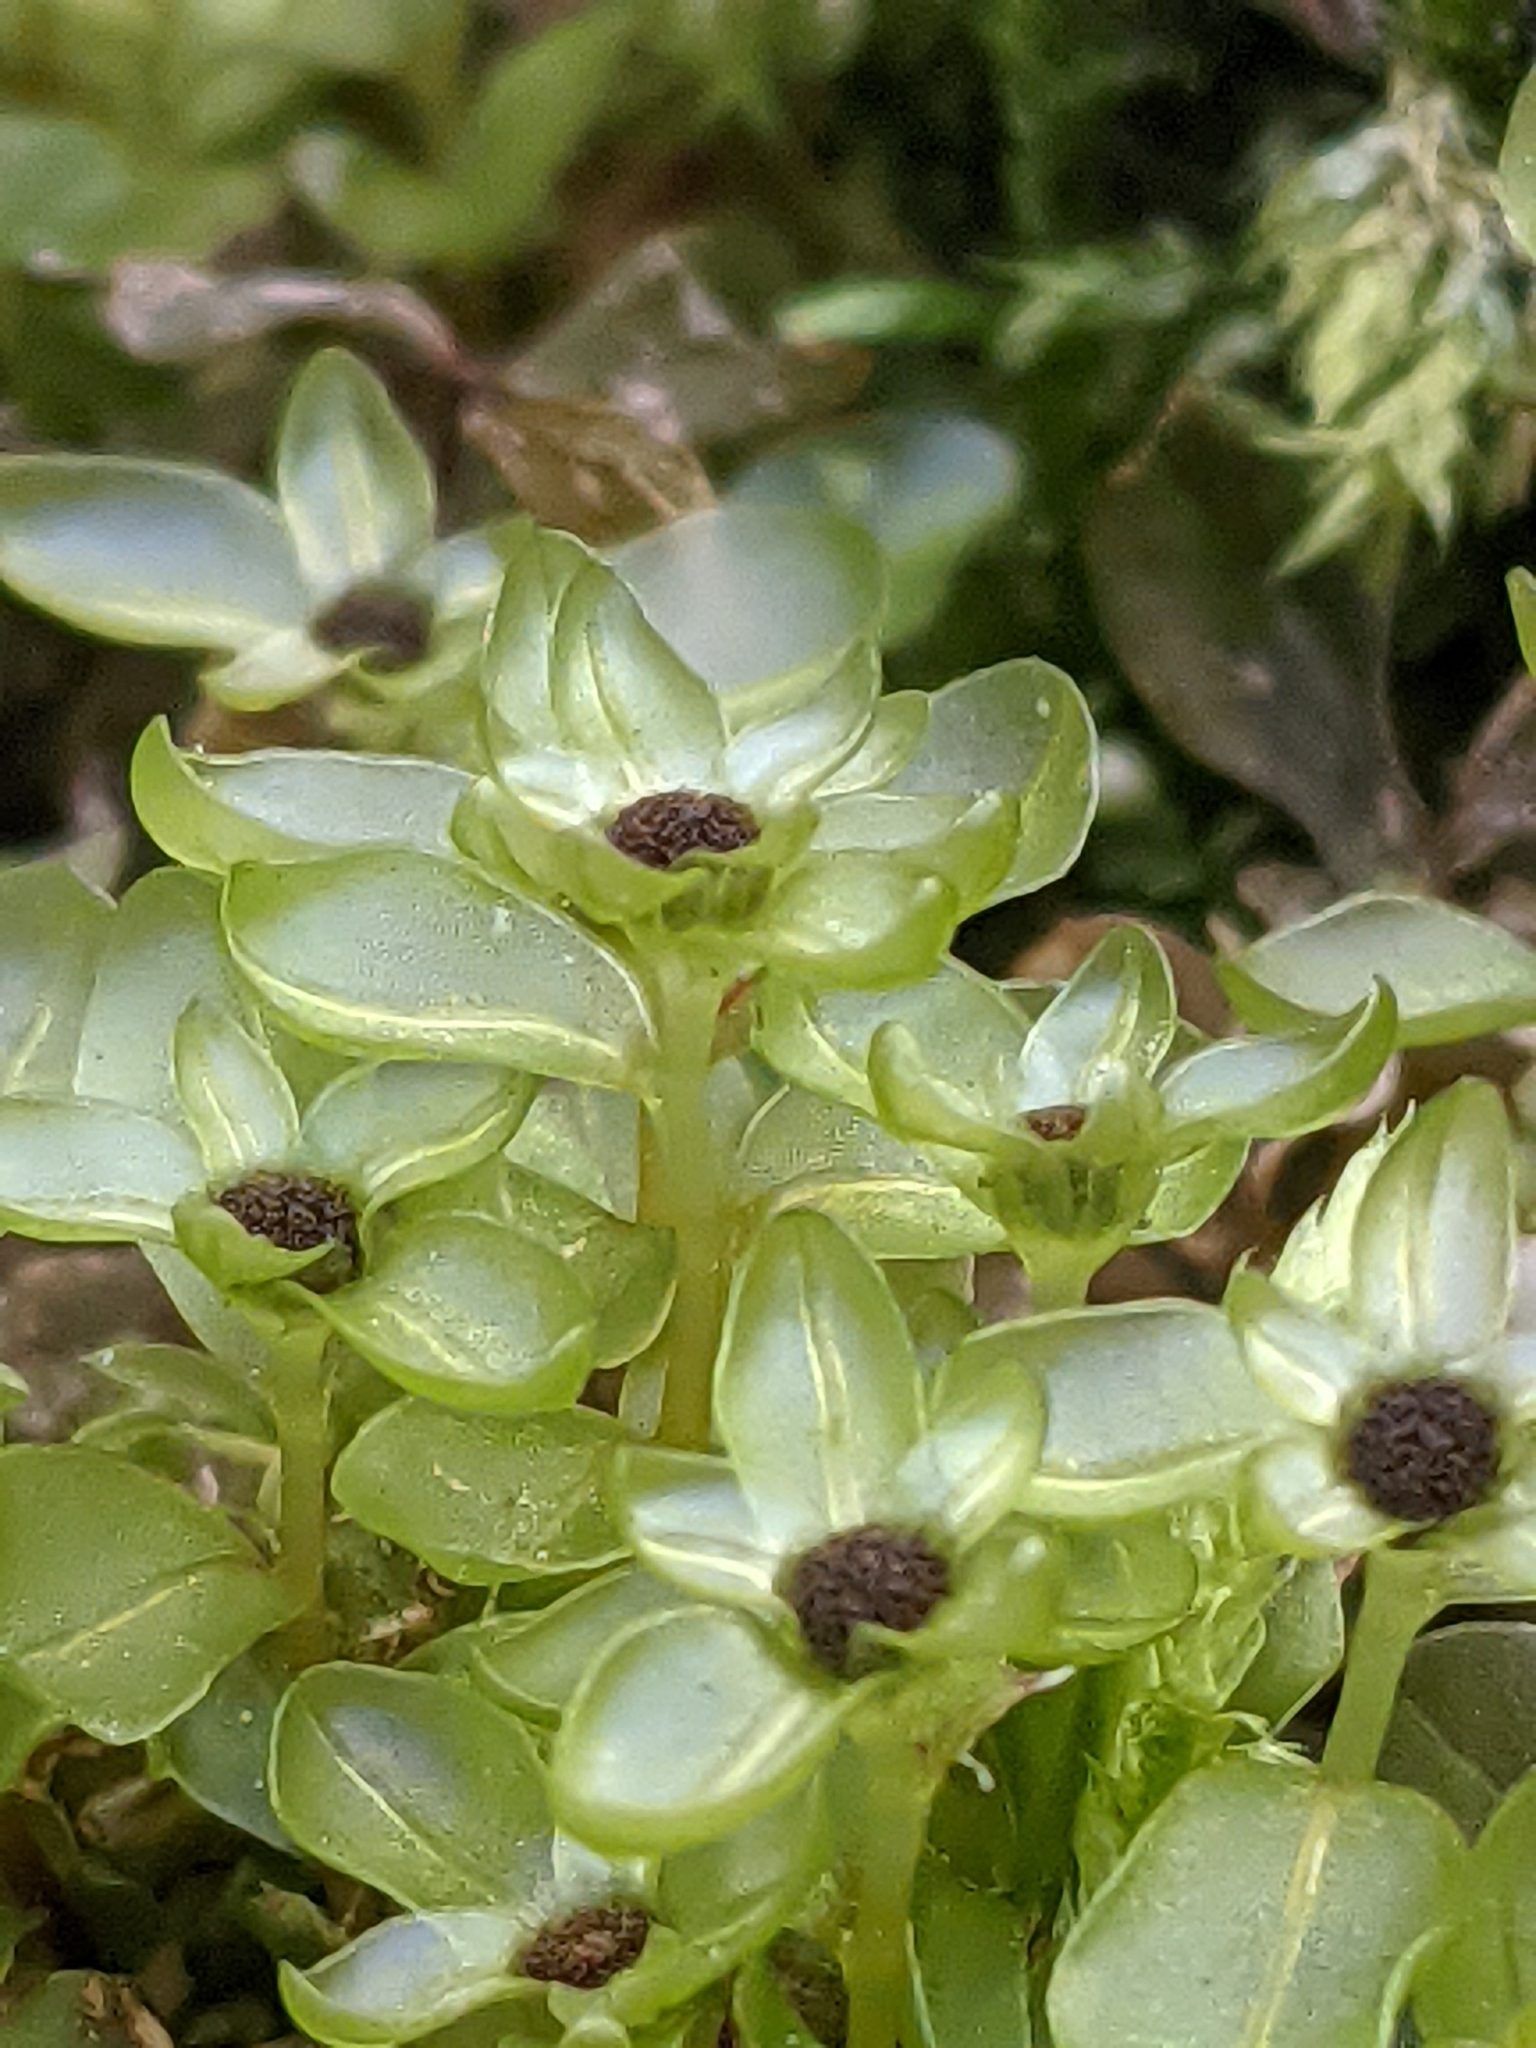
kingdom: Plantae
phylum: Bryophyta
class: Bryopsida
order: Bryales
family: Mniaceae
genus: Rhizomnium
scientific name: Rhizomnium punctatum
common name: Dotted leafy moss
